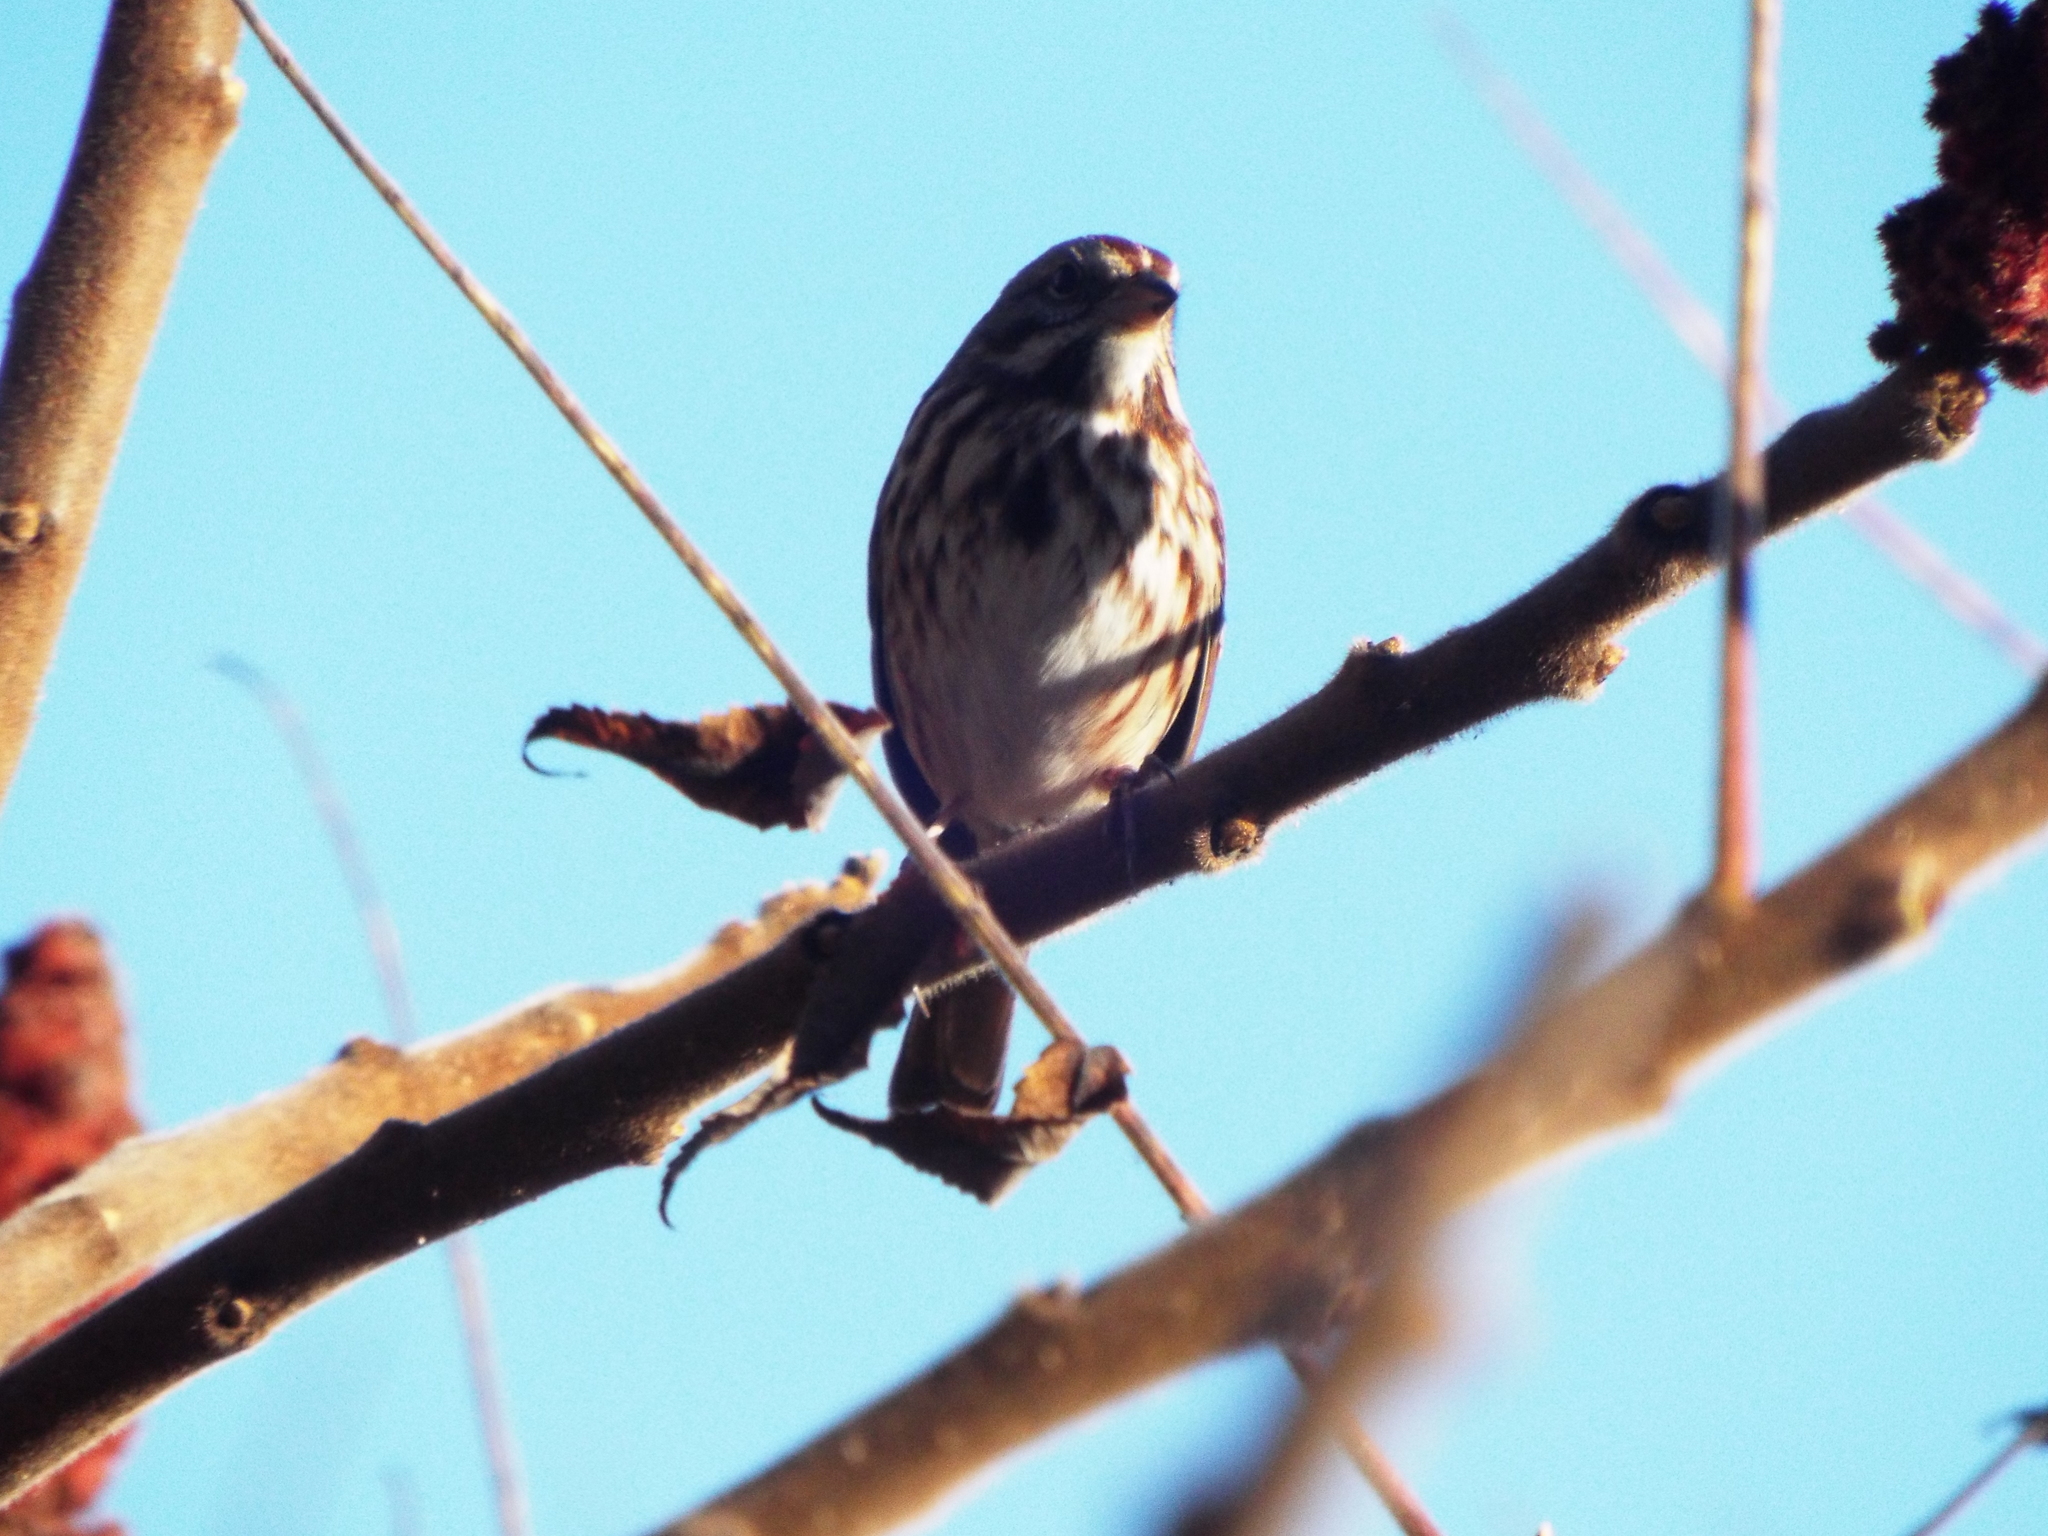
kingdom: Animalia
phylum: Chordata
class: Aves
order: Passeriformes
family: Passerellidae
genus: Melospiza
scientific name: Melospiza melodia
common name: Song sparrow
